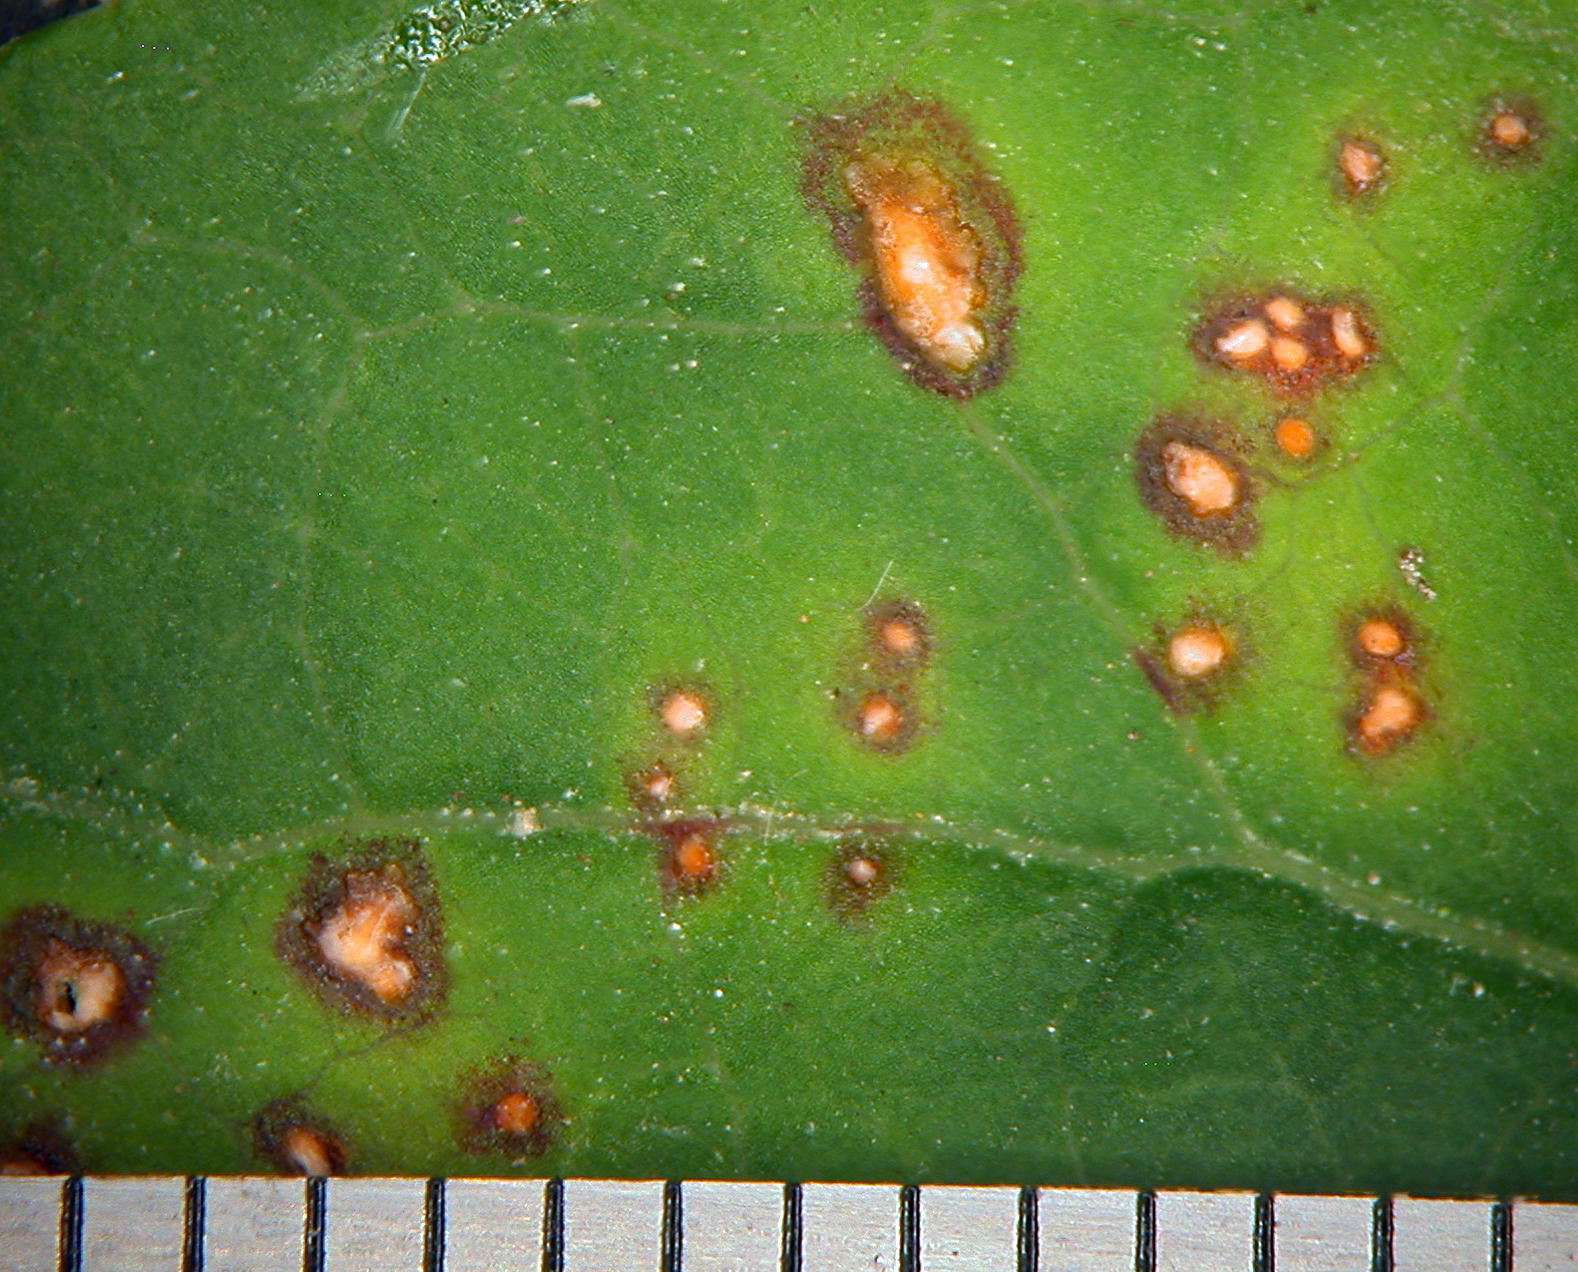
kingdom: Fungi
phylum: Ascomycota
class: Dothideomycetes
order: Mycosphaerellales
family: Mycosphaerellaceae
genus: Septogloeum
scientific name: Septogloeum thomasianum
